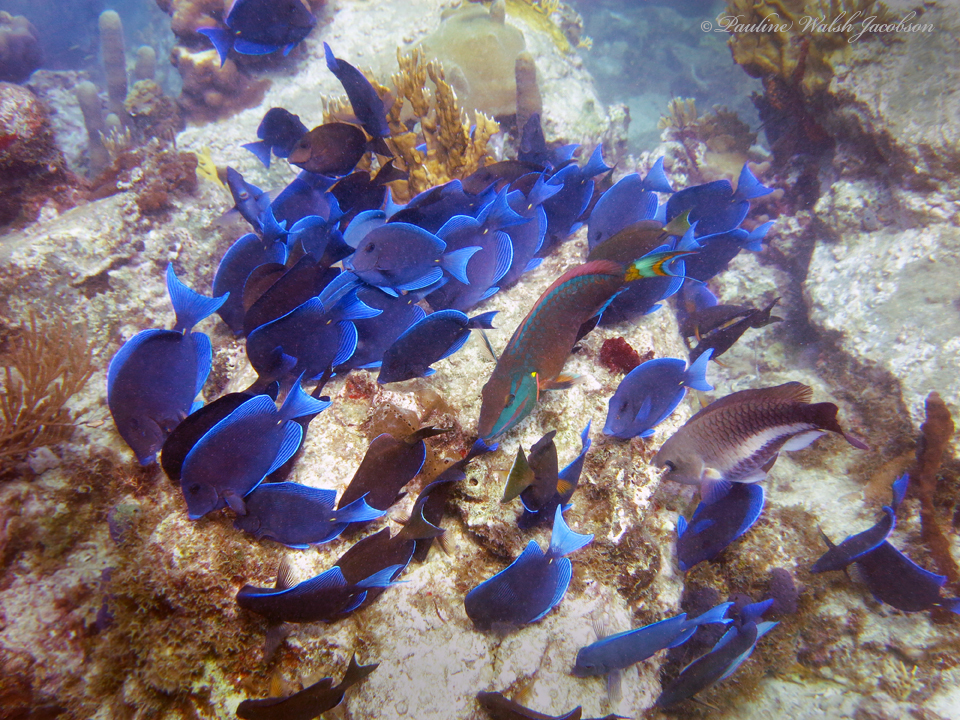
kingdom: Animalia
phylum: Chordata
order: Perciformes
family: Acanthuridae
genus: Acanthurus
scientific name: Acanthurus coeruleus
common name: Blue tang
